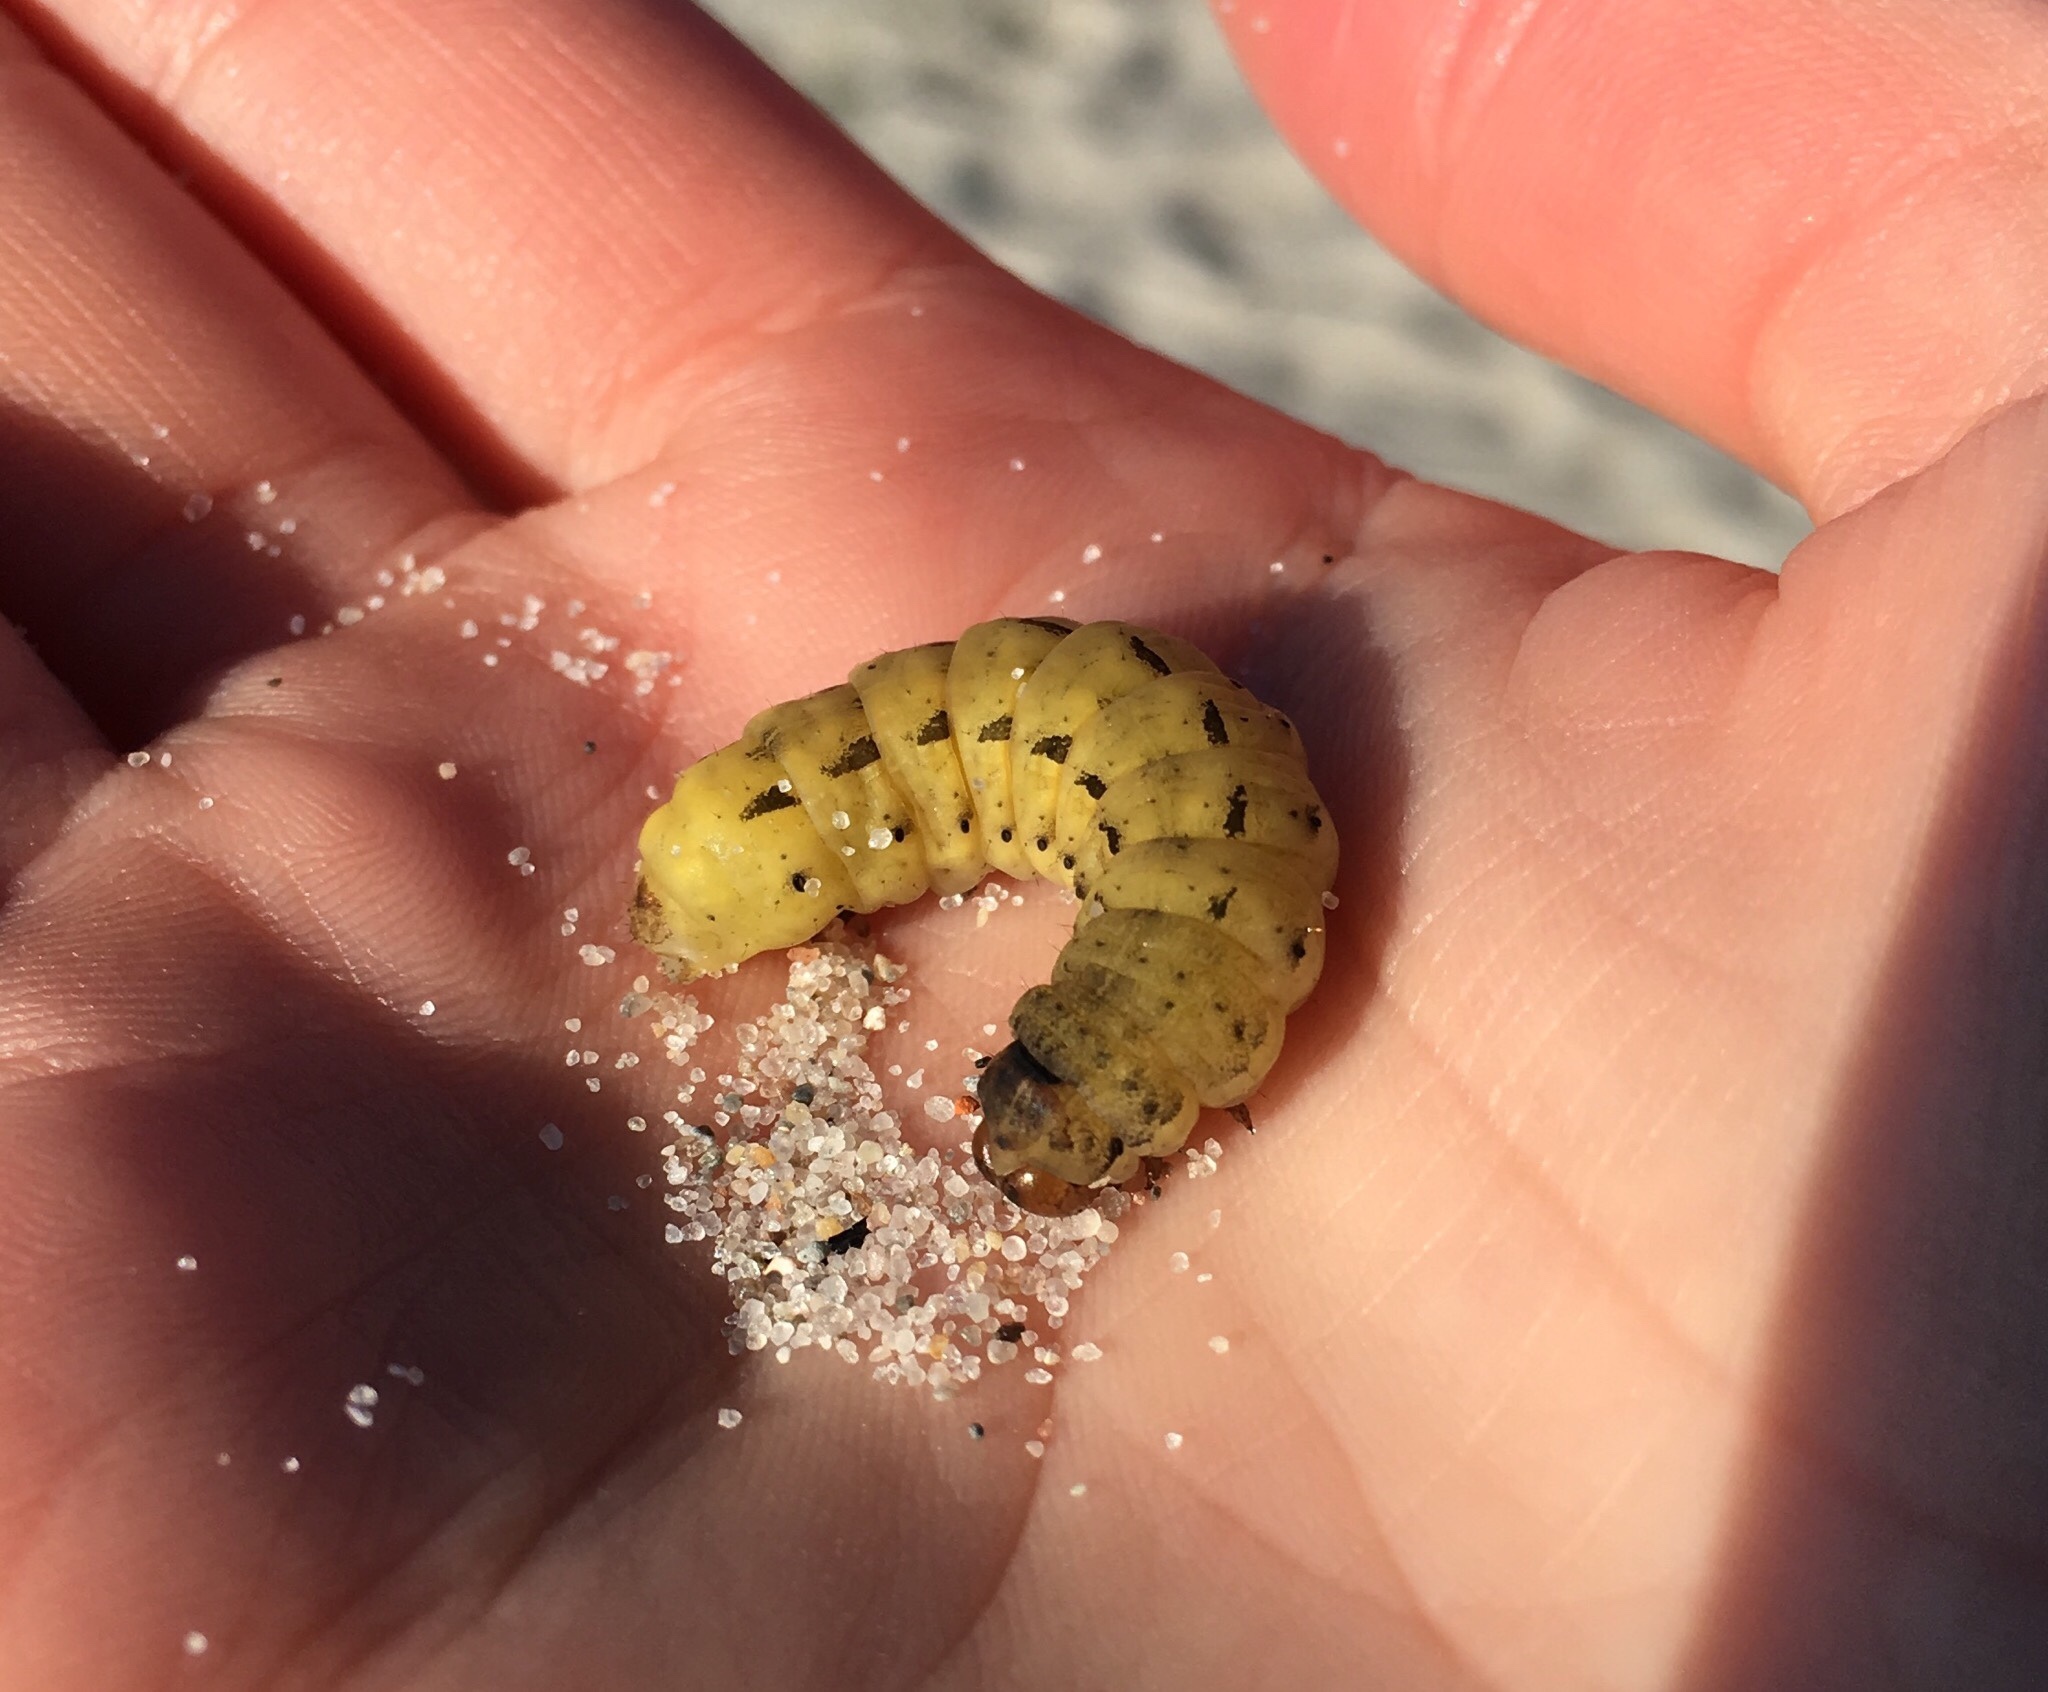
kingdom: Animalia
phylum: Arthropoda
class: Insecta
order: Lepidoptera
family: Noctuidae
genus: Noctua
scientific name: Noctua pronuba
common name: Large yellow underwing
